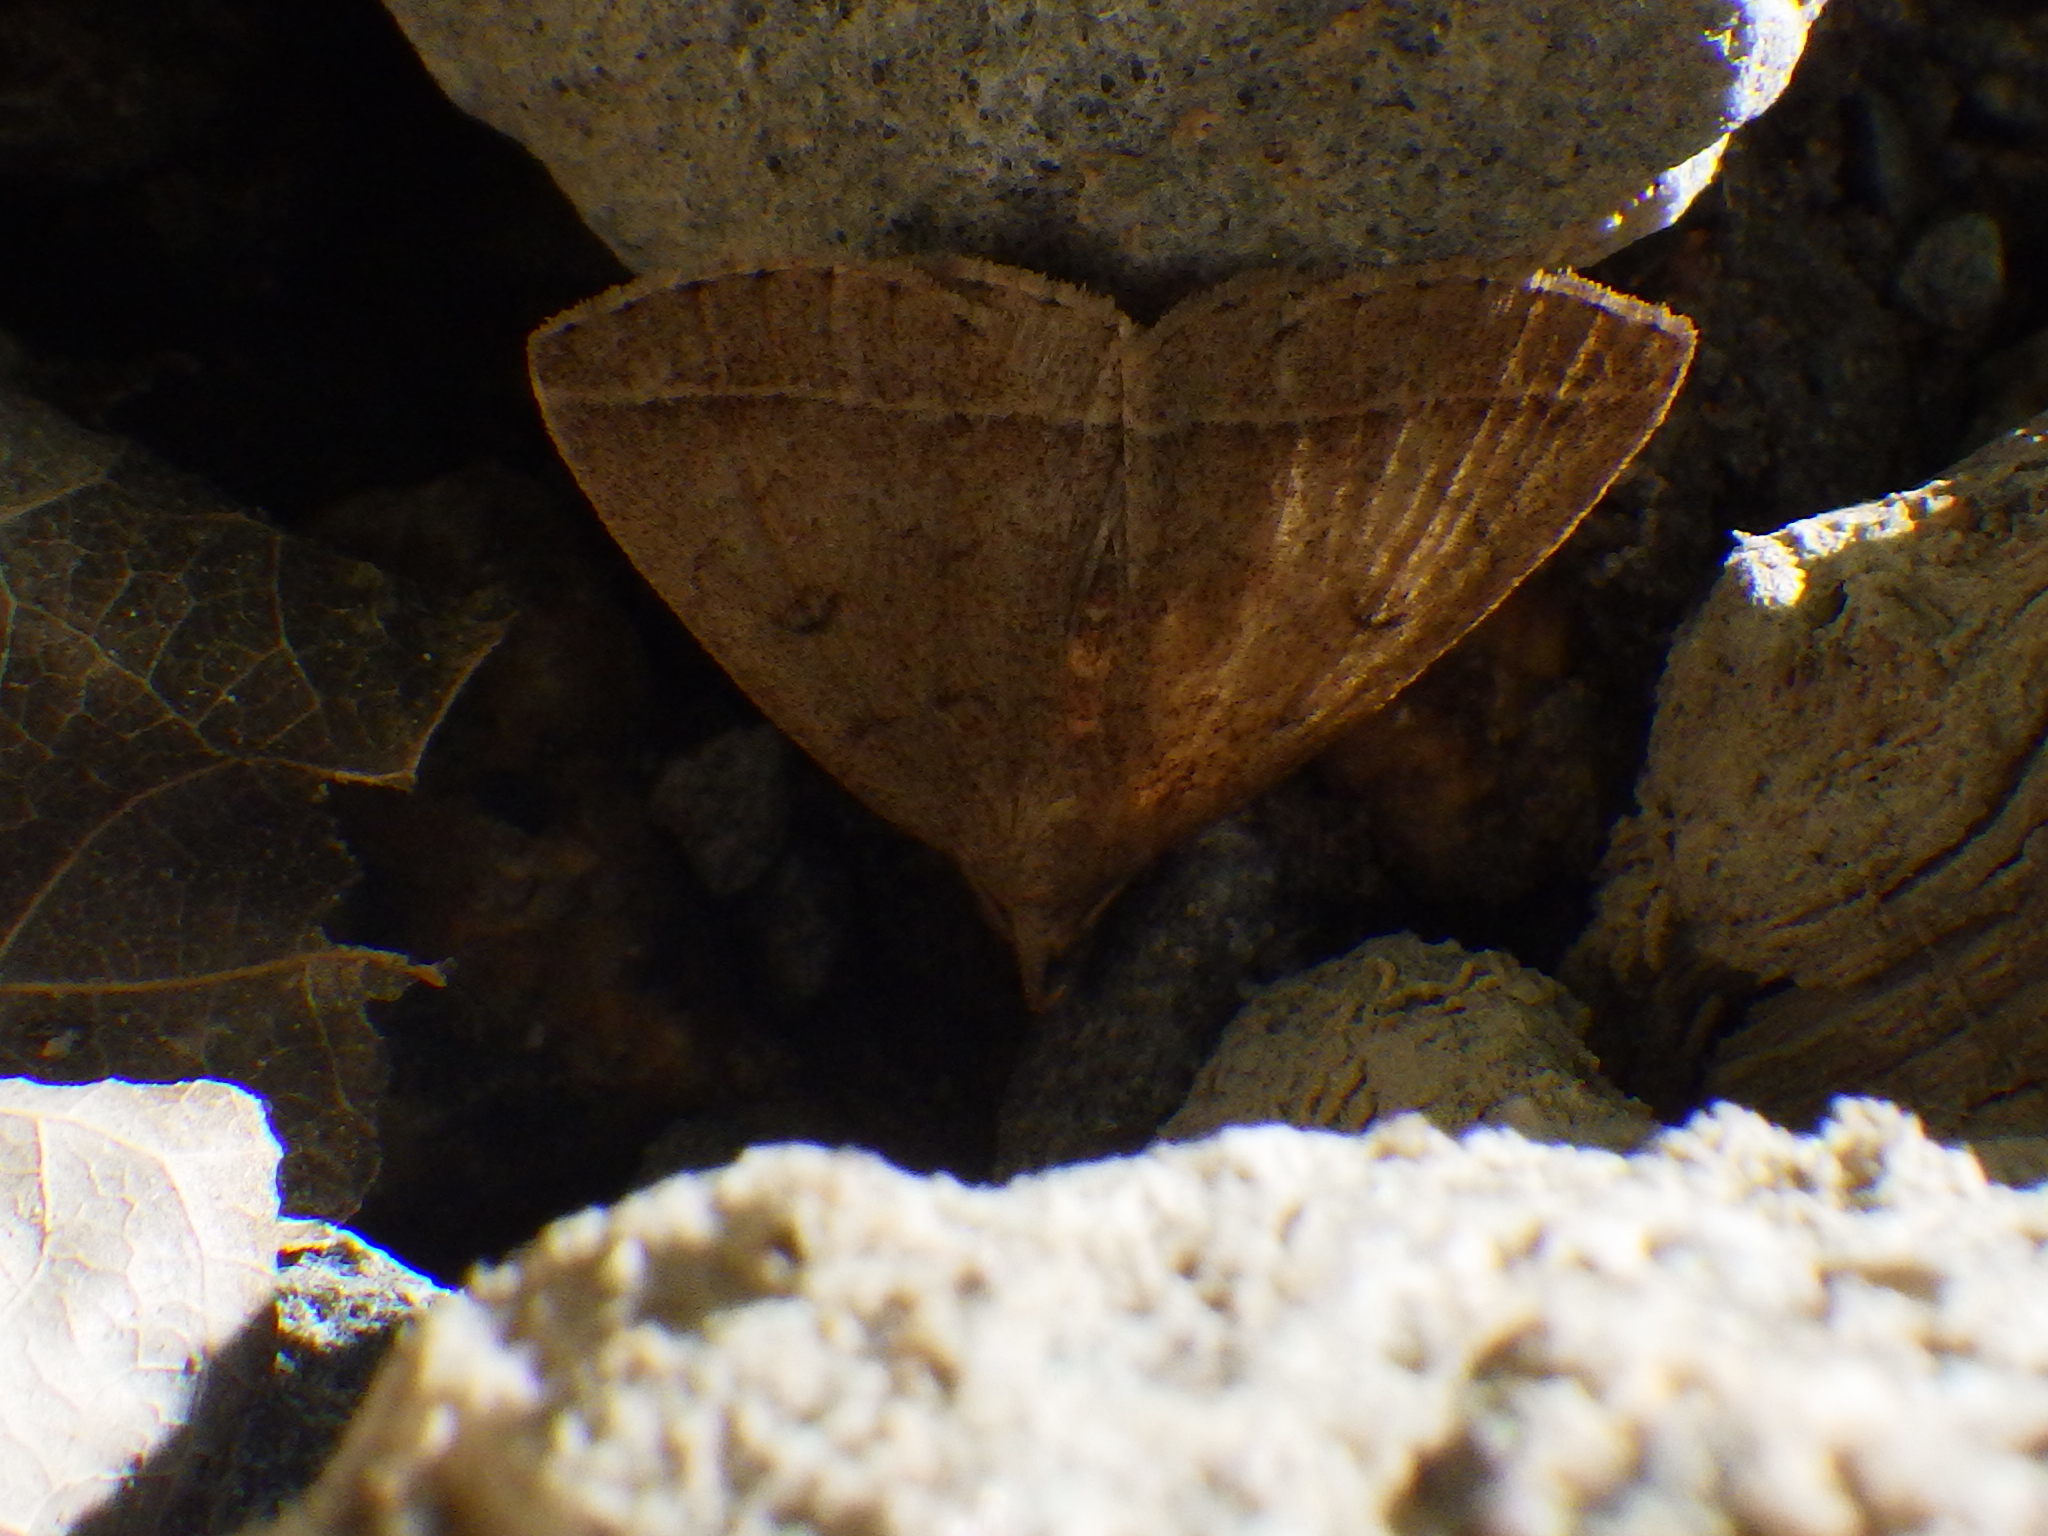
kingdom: Animalia
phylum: Arthropoda
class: Insecta
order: Lepidoptera
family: Erebidae
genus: Zanclognatha
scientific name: Zanclognatha jacchusalis
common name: Yellowish zanclognatha
